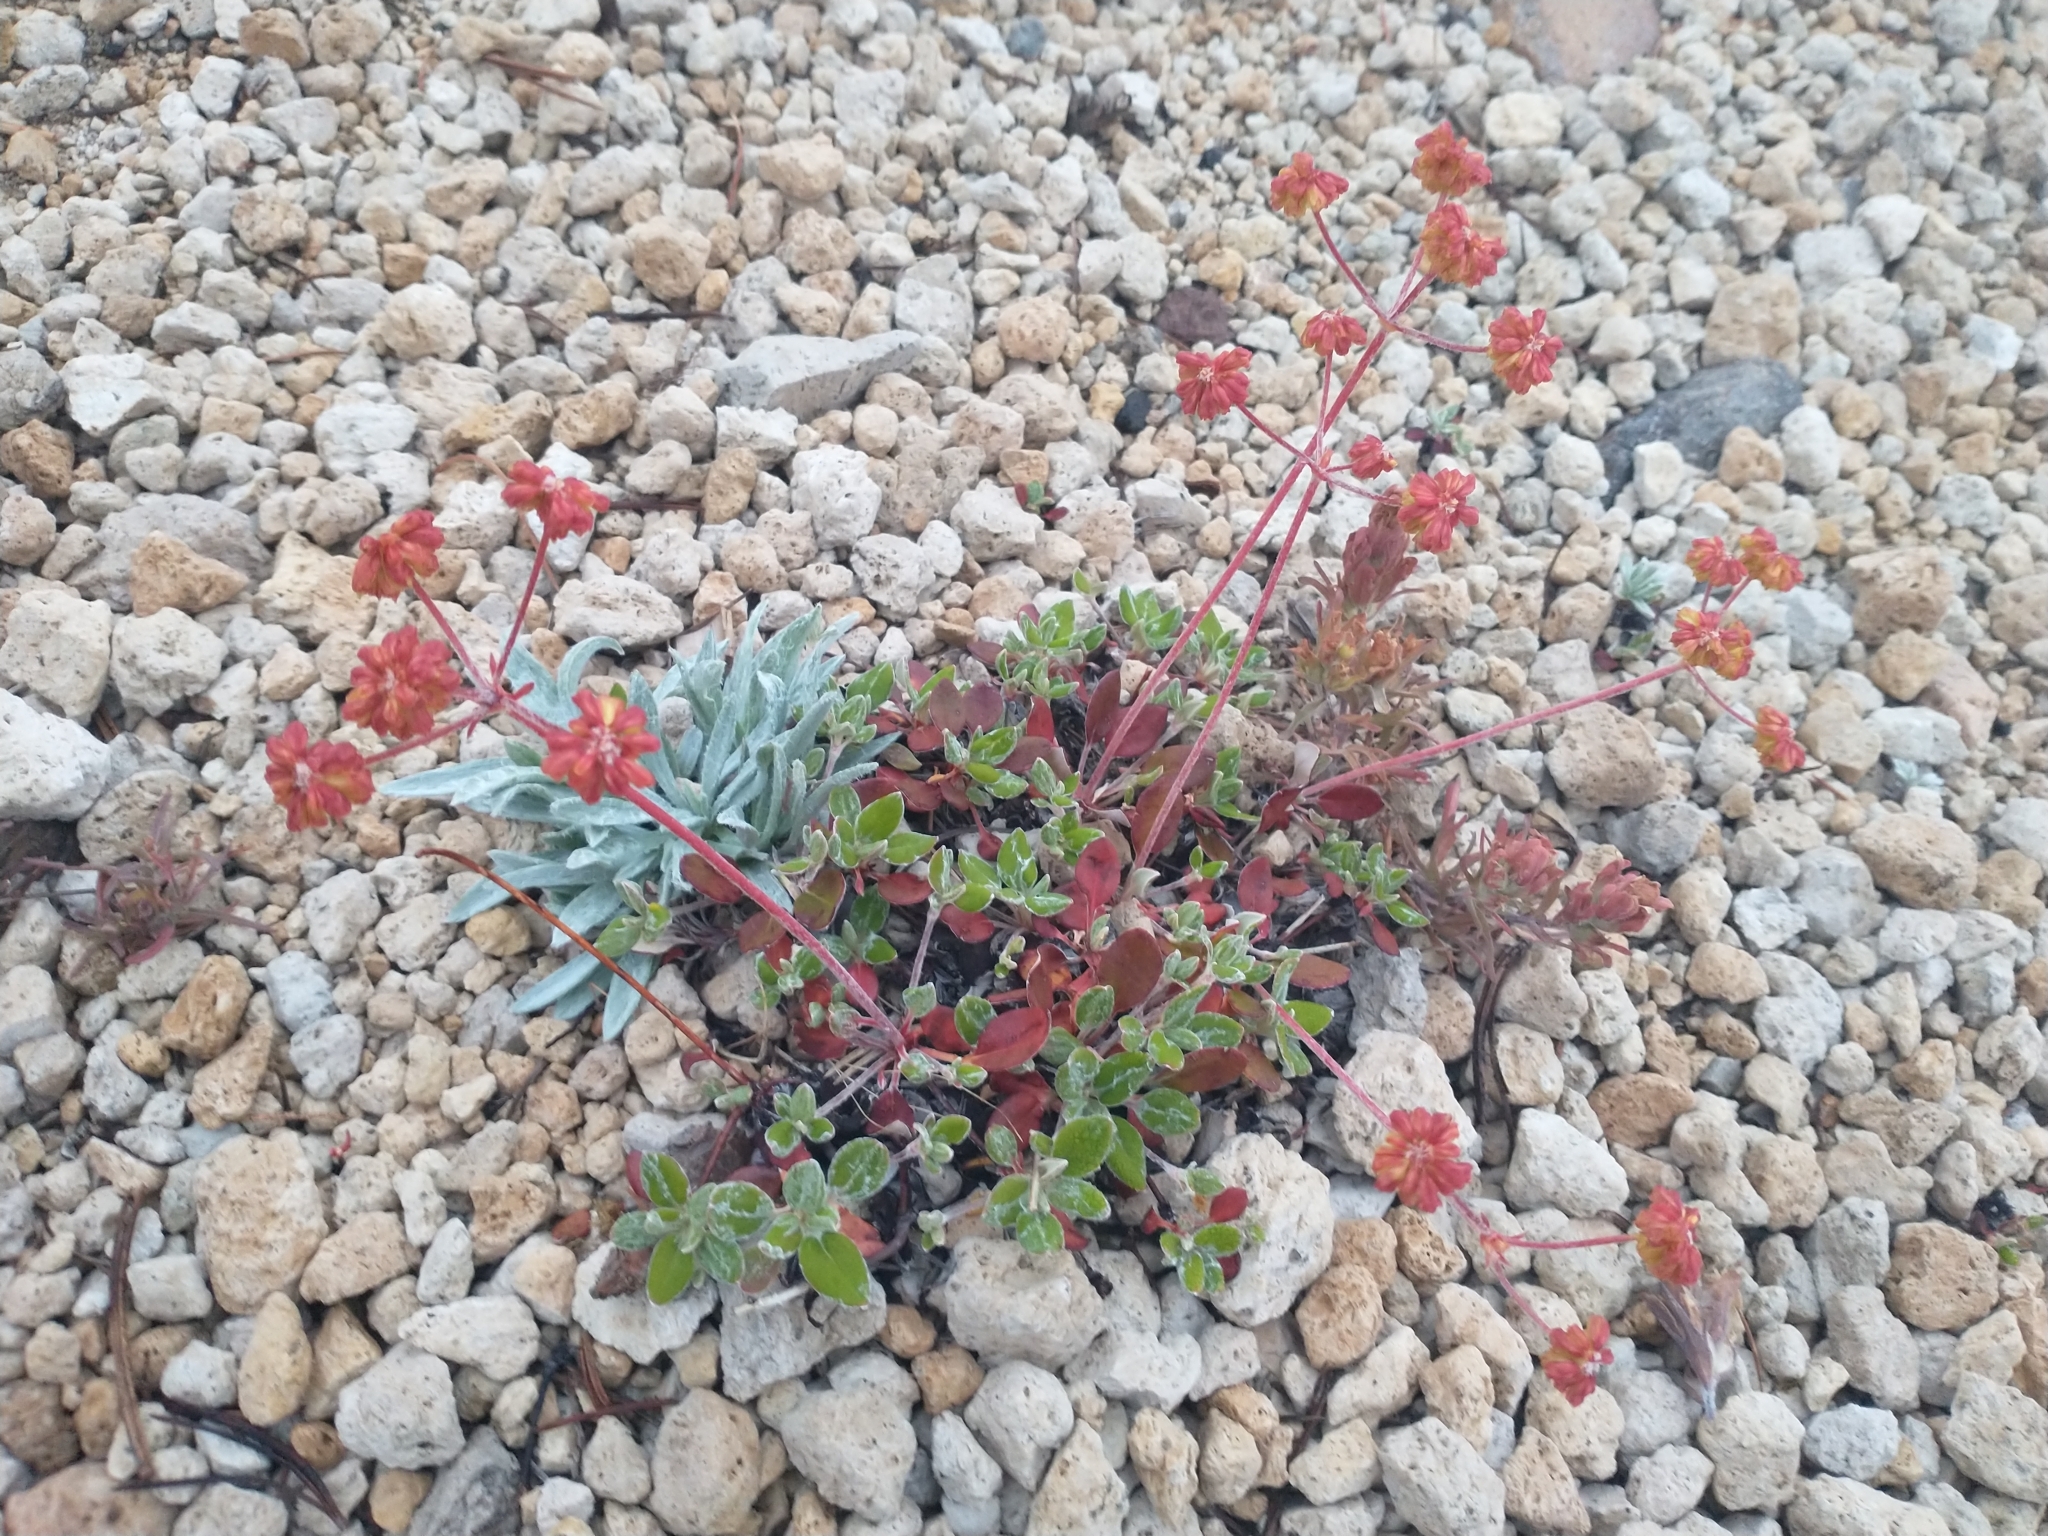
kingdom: Plantae
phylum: Tracheophyta
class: Magnoliopsida
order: Caryophyllales
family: Polygonaceae
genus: Eriogonum
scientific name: Eriogonum marifolium
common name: Marum-leaf wild buckwheat
